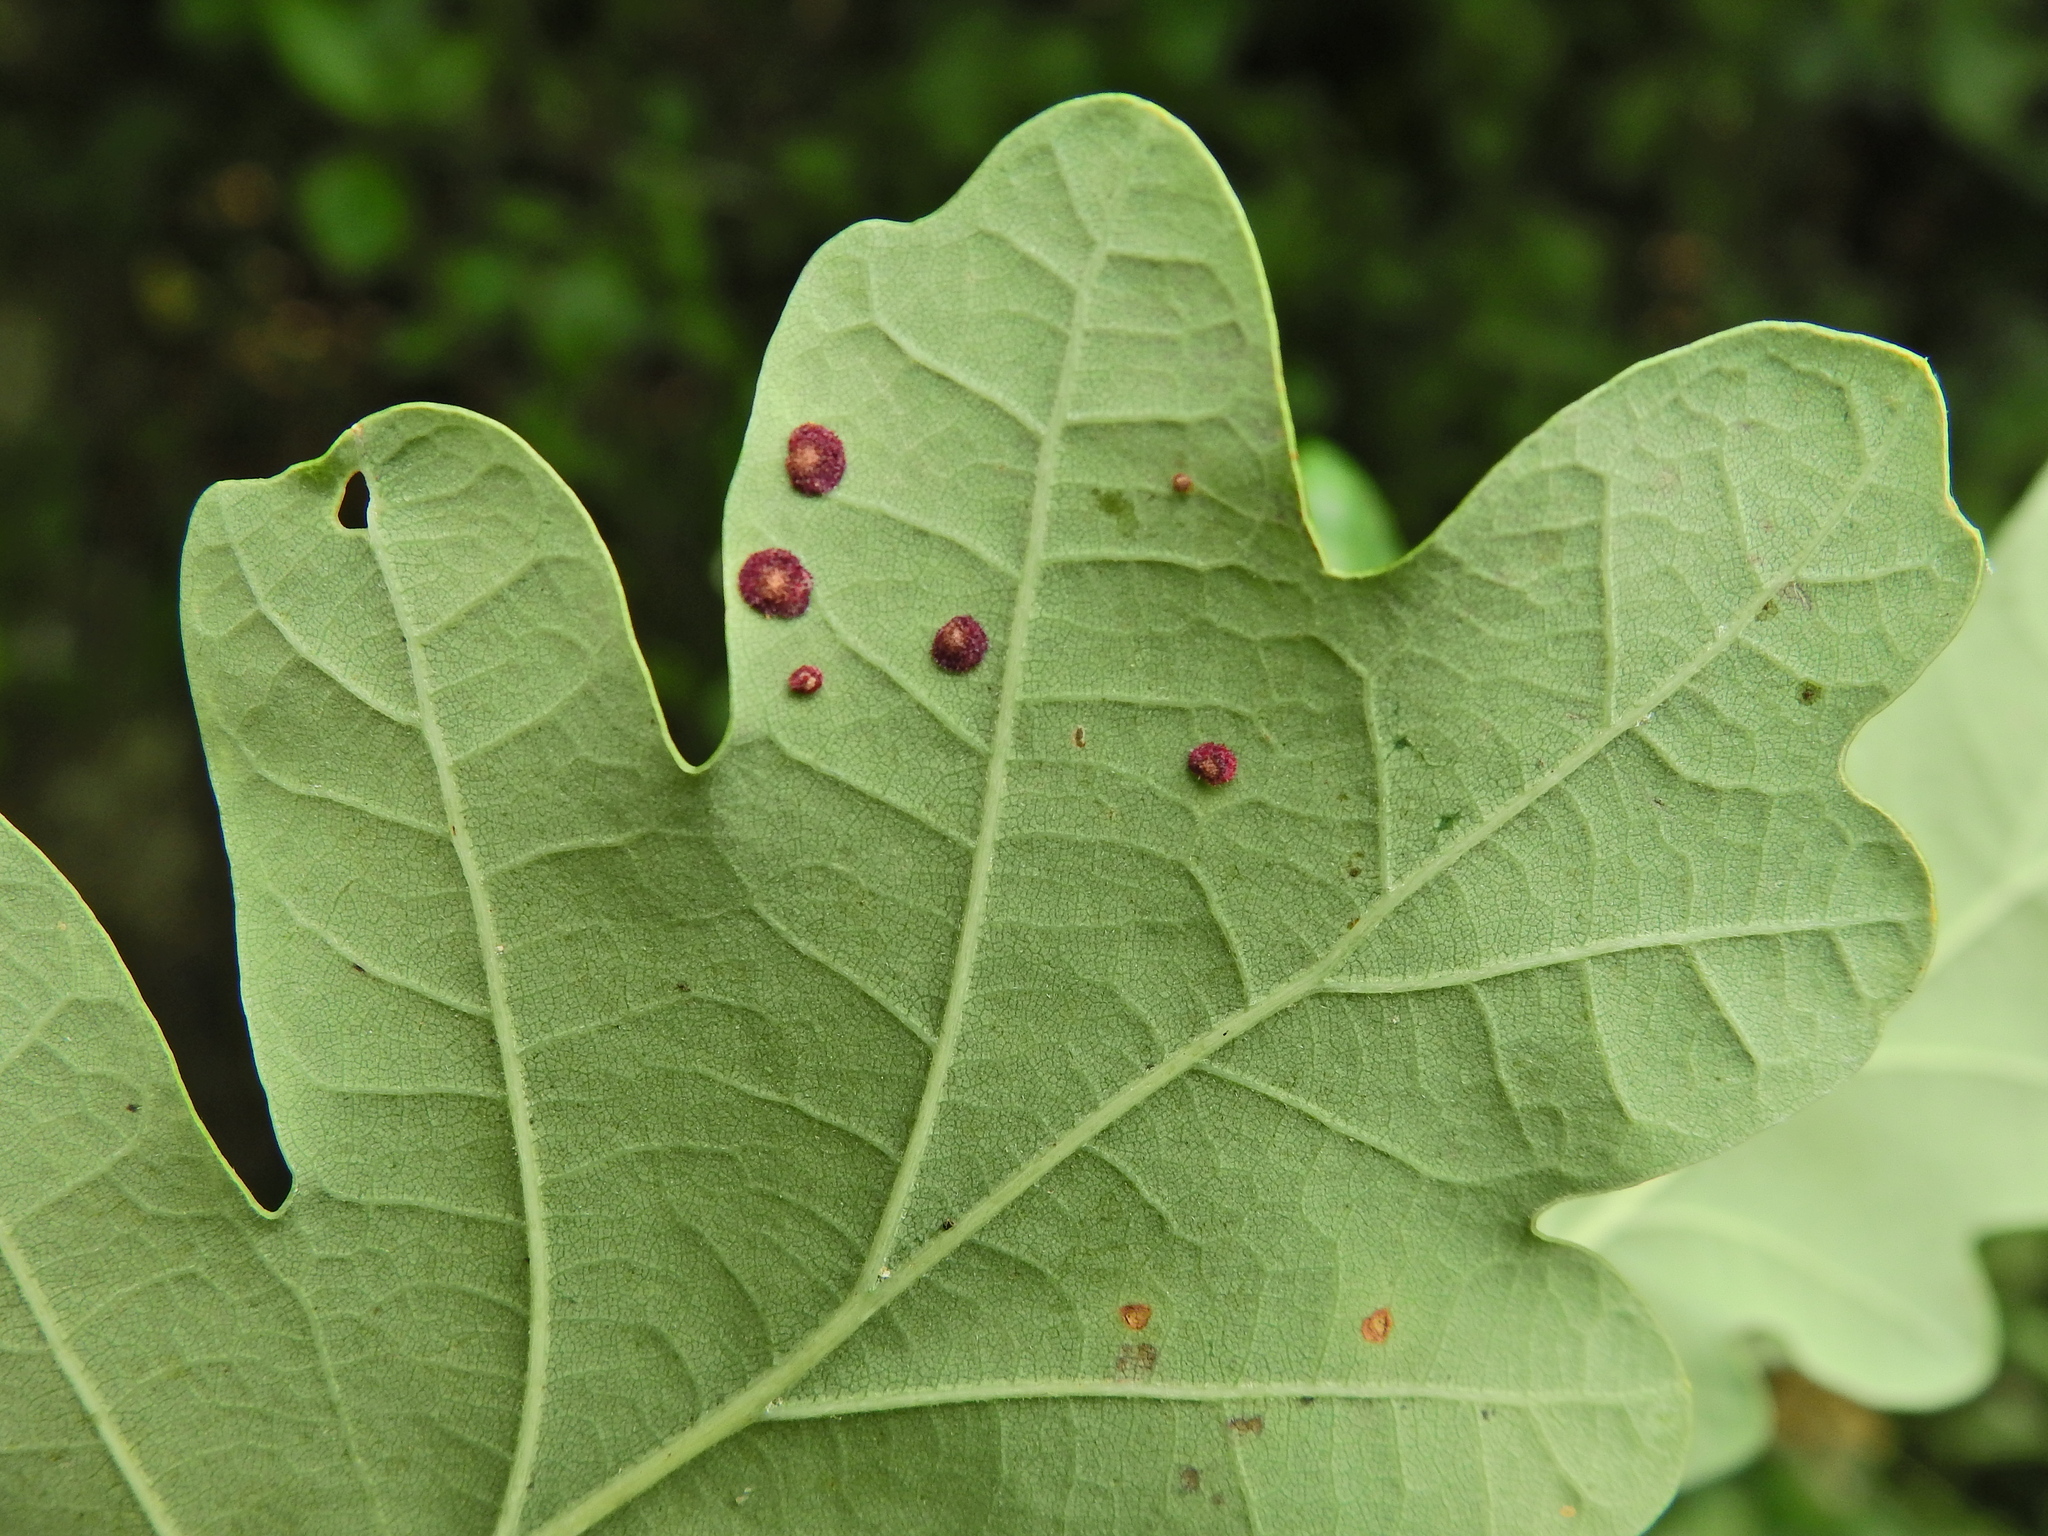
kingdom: Animalia
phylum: Arthropoda
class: Insecta
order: Hymenoptera
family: Cynipidae
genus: Neuroterus
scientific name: Neuroterus quercusbaccarum
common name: Common spangle gall
